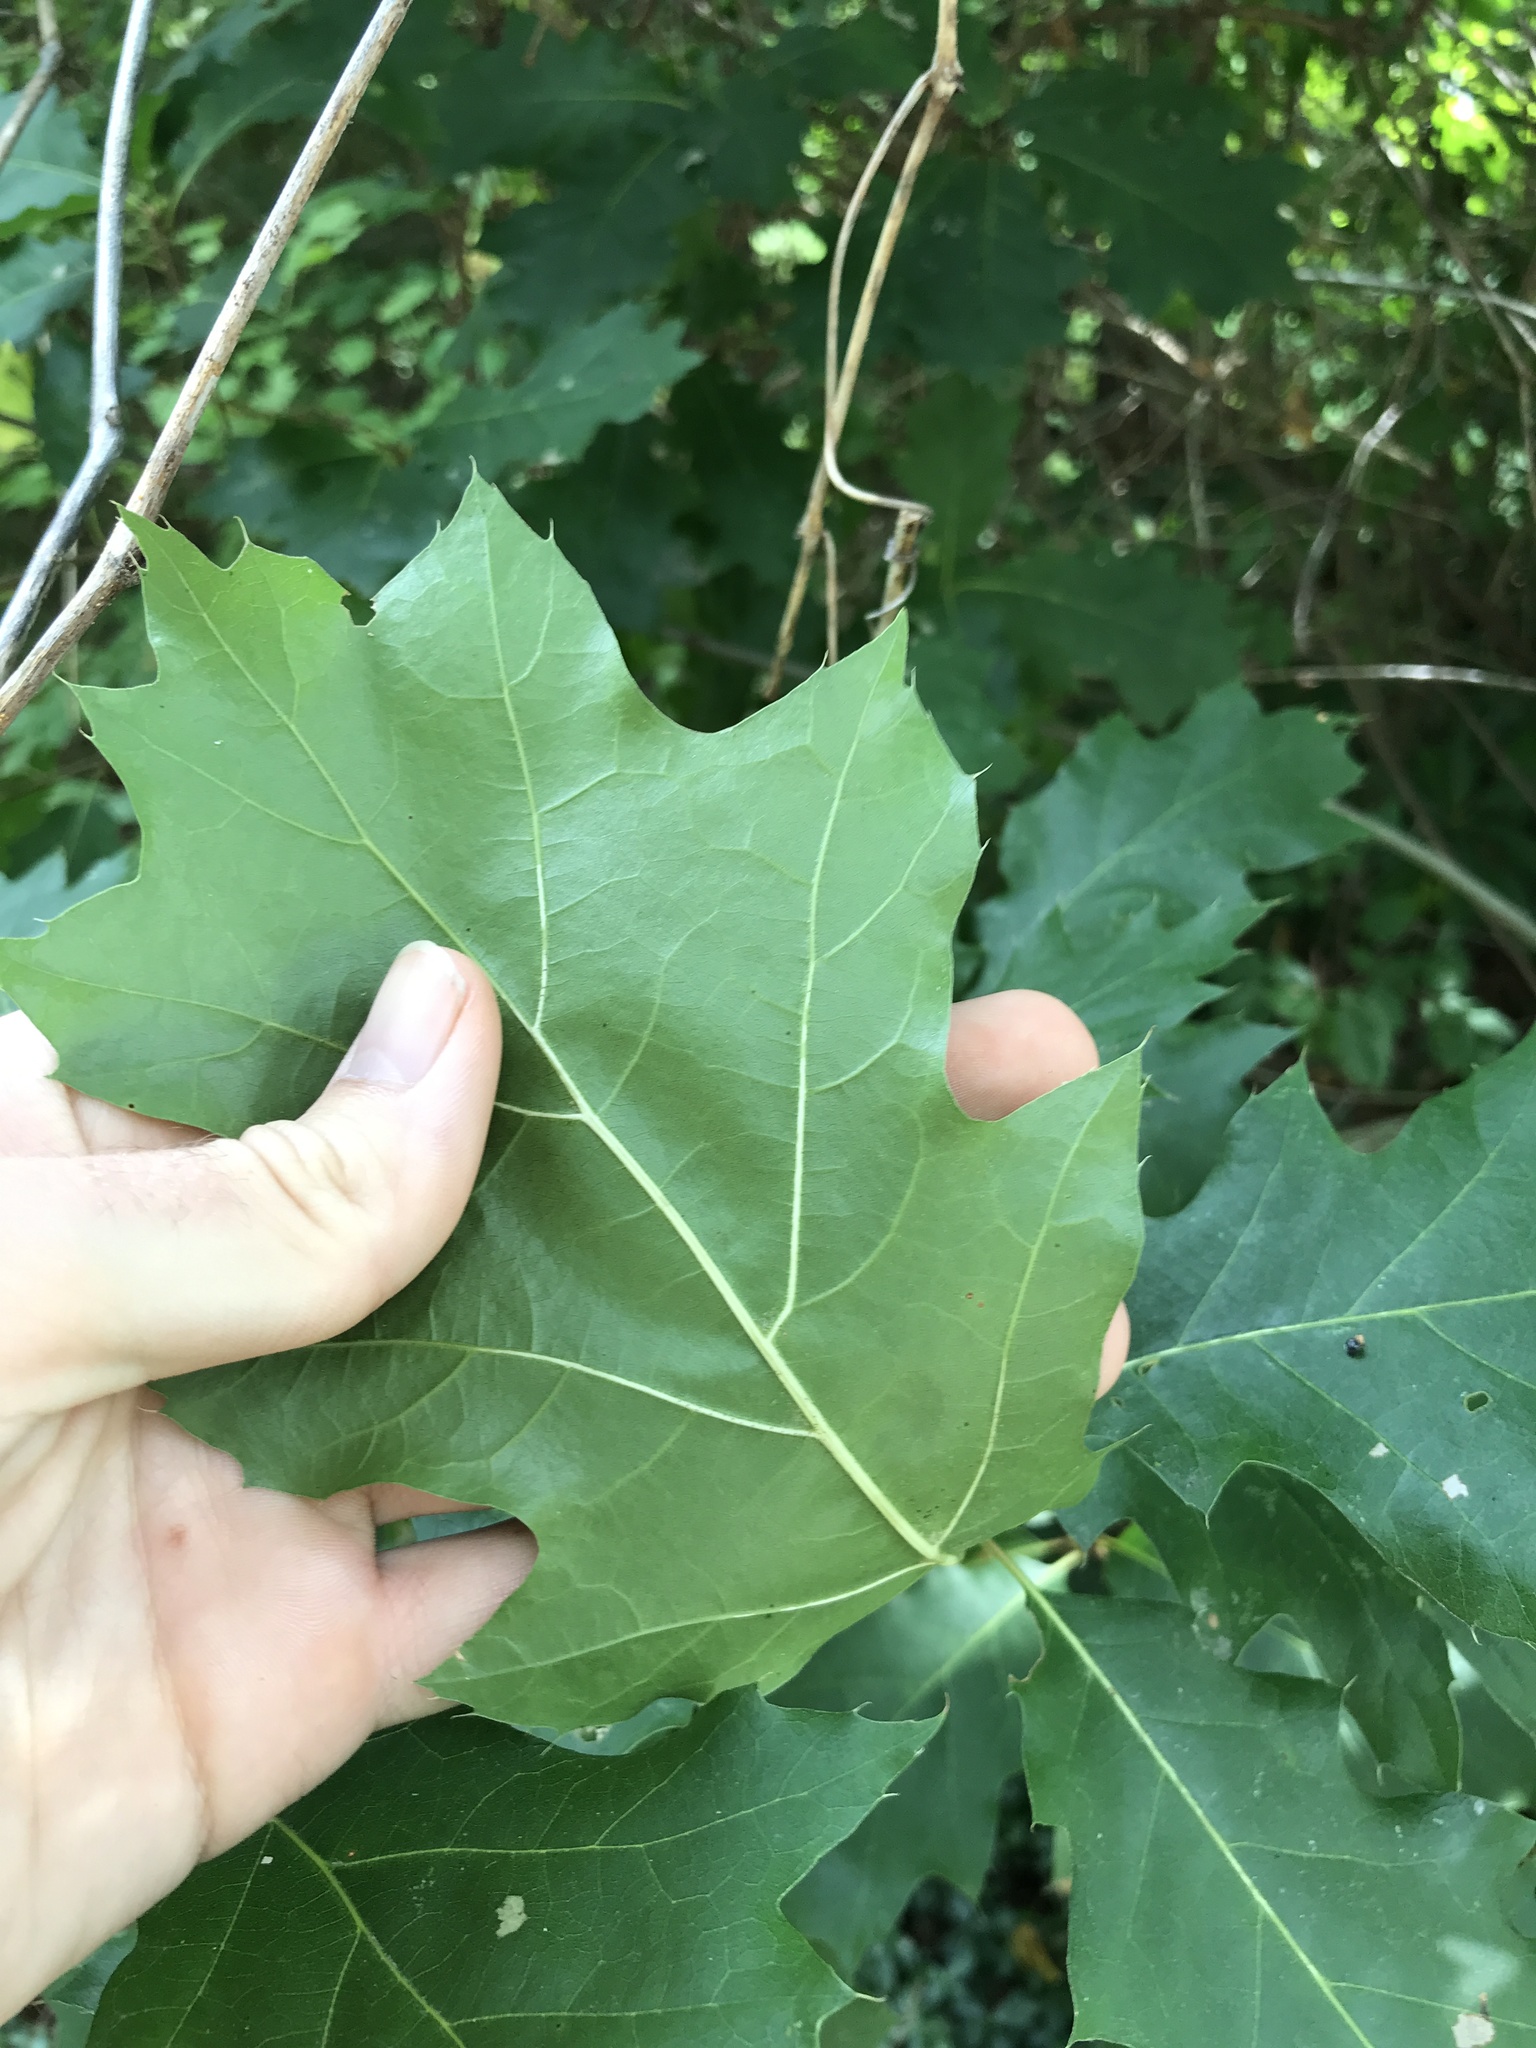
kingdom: Plantae
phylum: Tracheophyta
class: Magnoliopsida
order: Fagales
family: Fagaceae
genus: Quercus
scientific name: Quercus rubra
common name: Red oak
